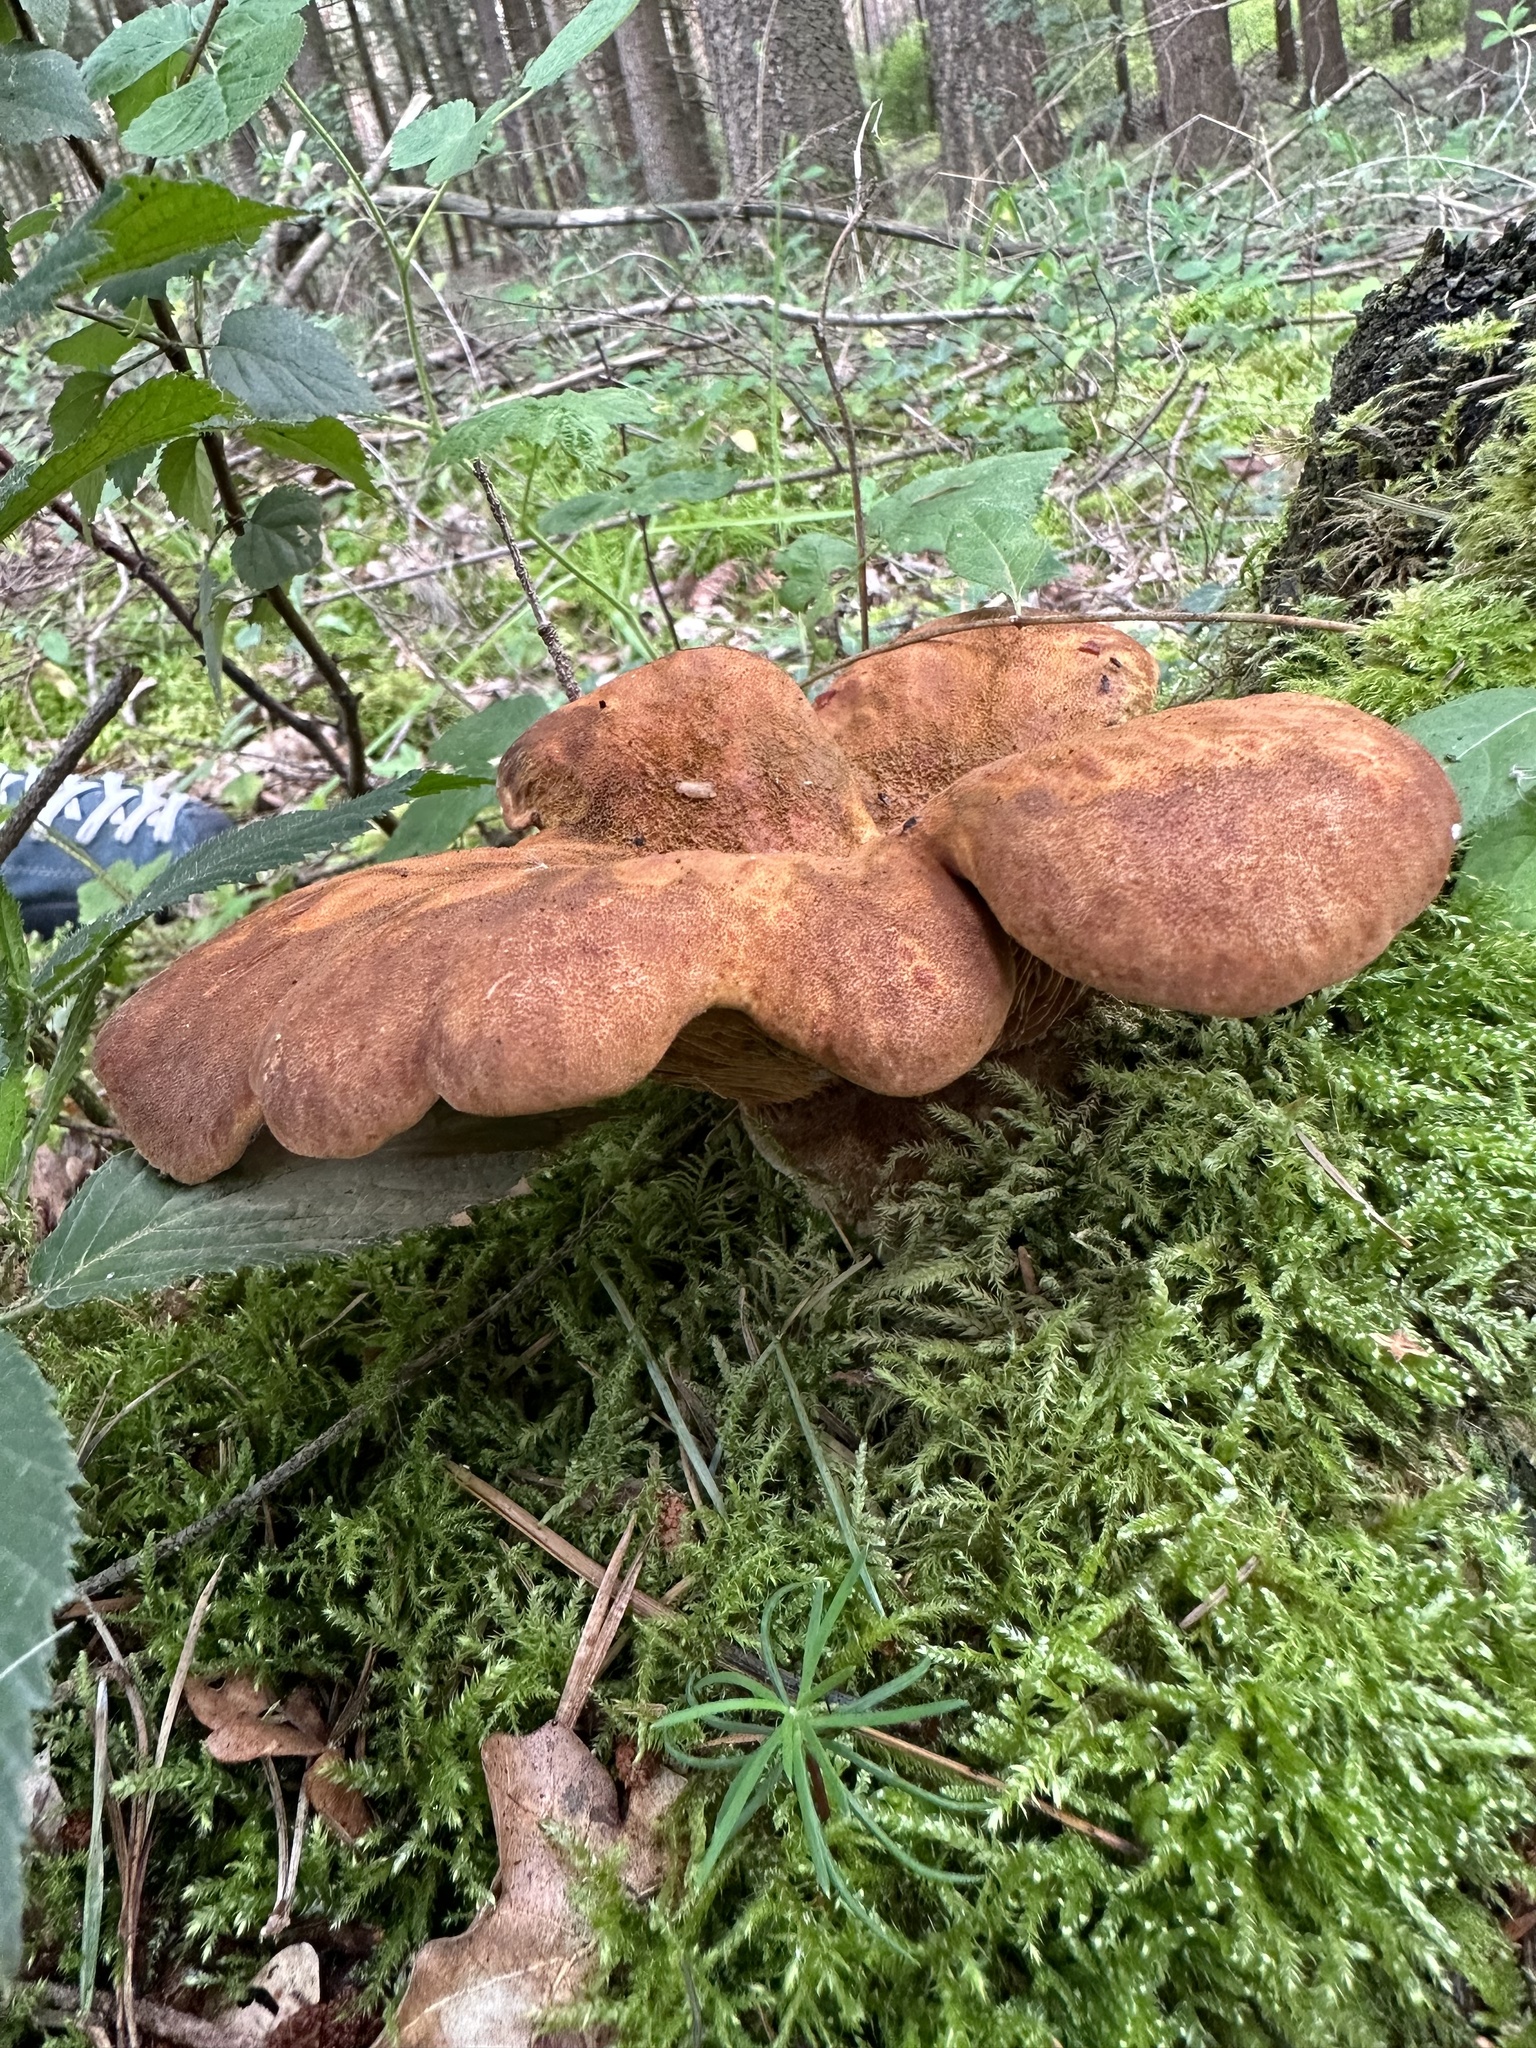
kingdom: Fungi
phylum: Basidiomycota
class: Agaricomycetes
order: Boletales
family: Tapinellaceae
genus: Tapinella
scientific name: Tapinella atrotomentosa
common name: Velvet rollrim
